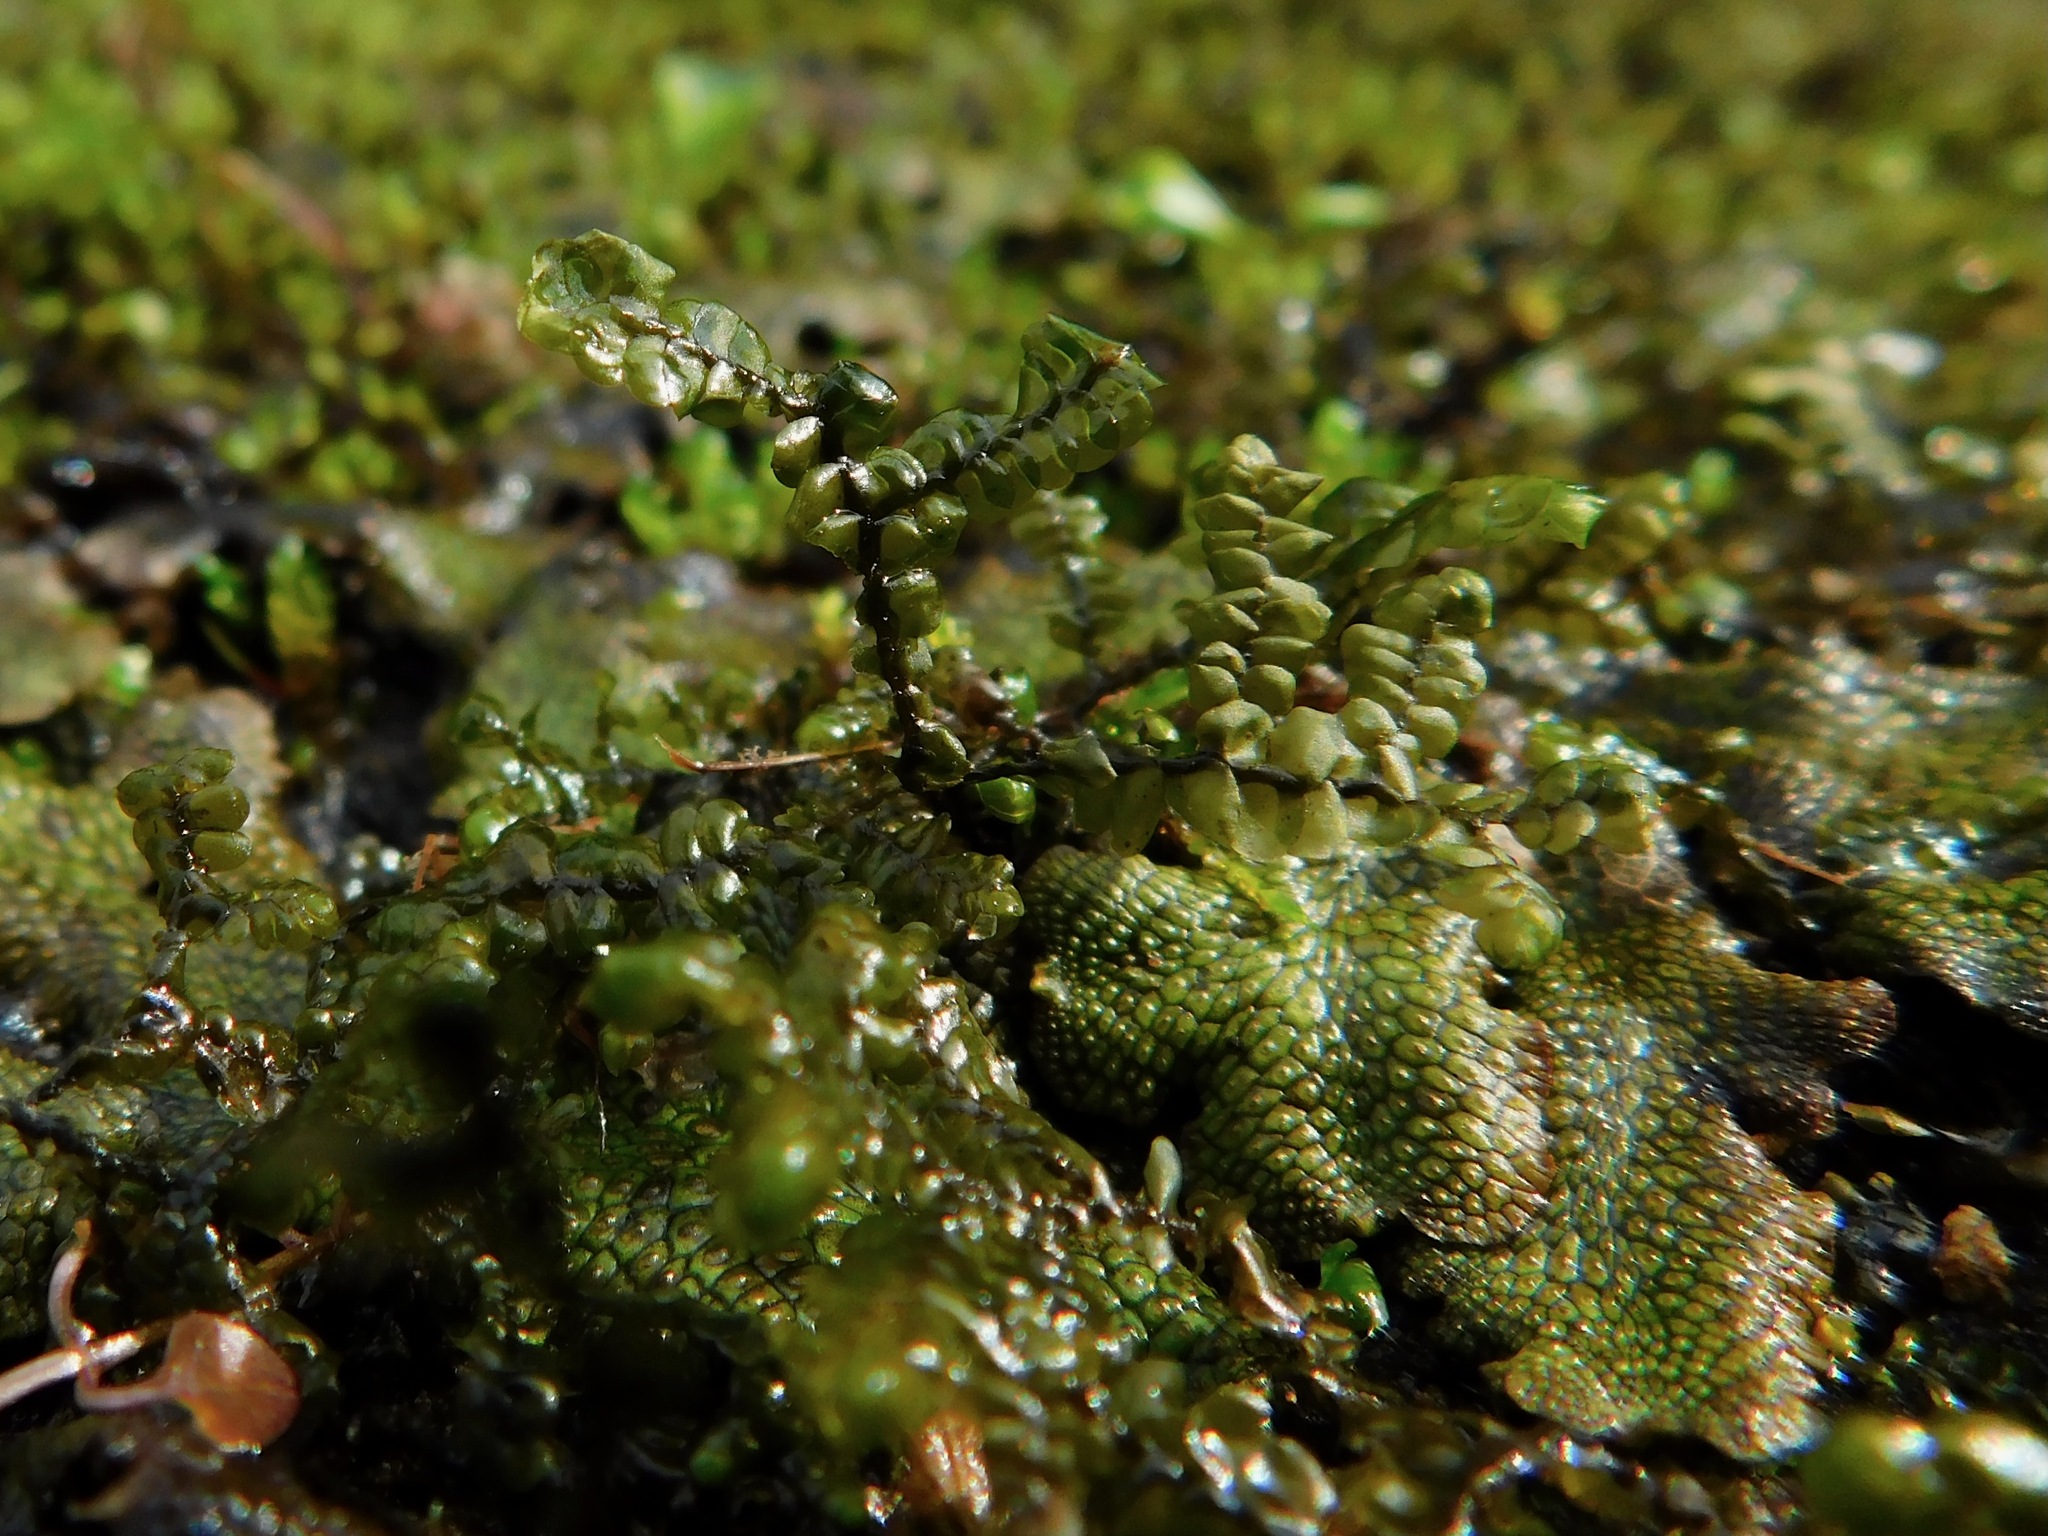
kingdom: Plantae
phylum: Marchantiophyta
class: Jungermanniopsida
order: Jungermanniales
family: Calypogeiaceae
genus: Calypogeia
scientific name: Calypogeia muelleriana
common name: Mueller s pouchwort
